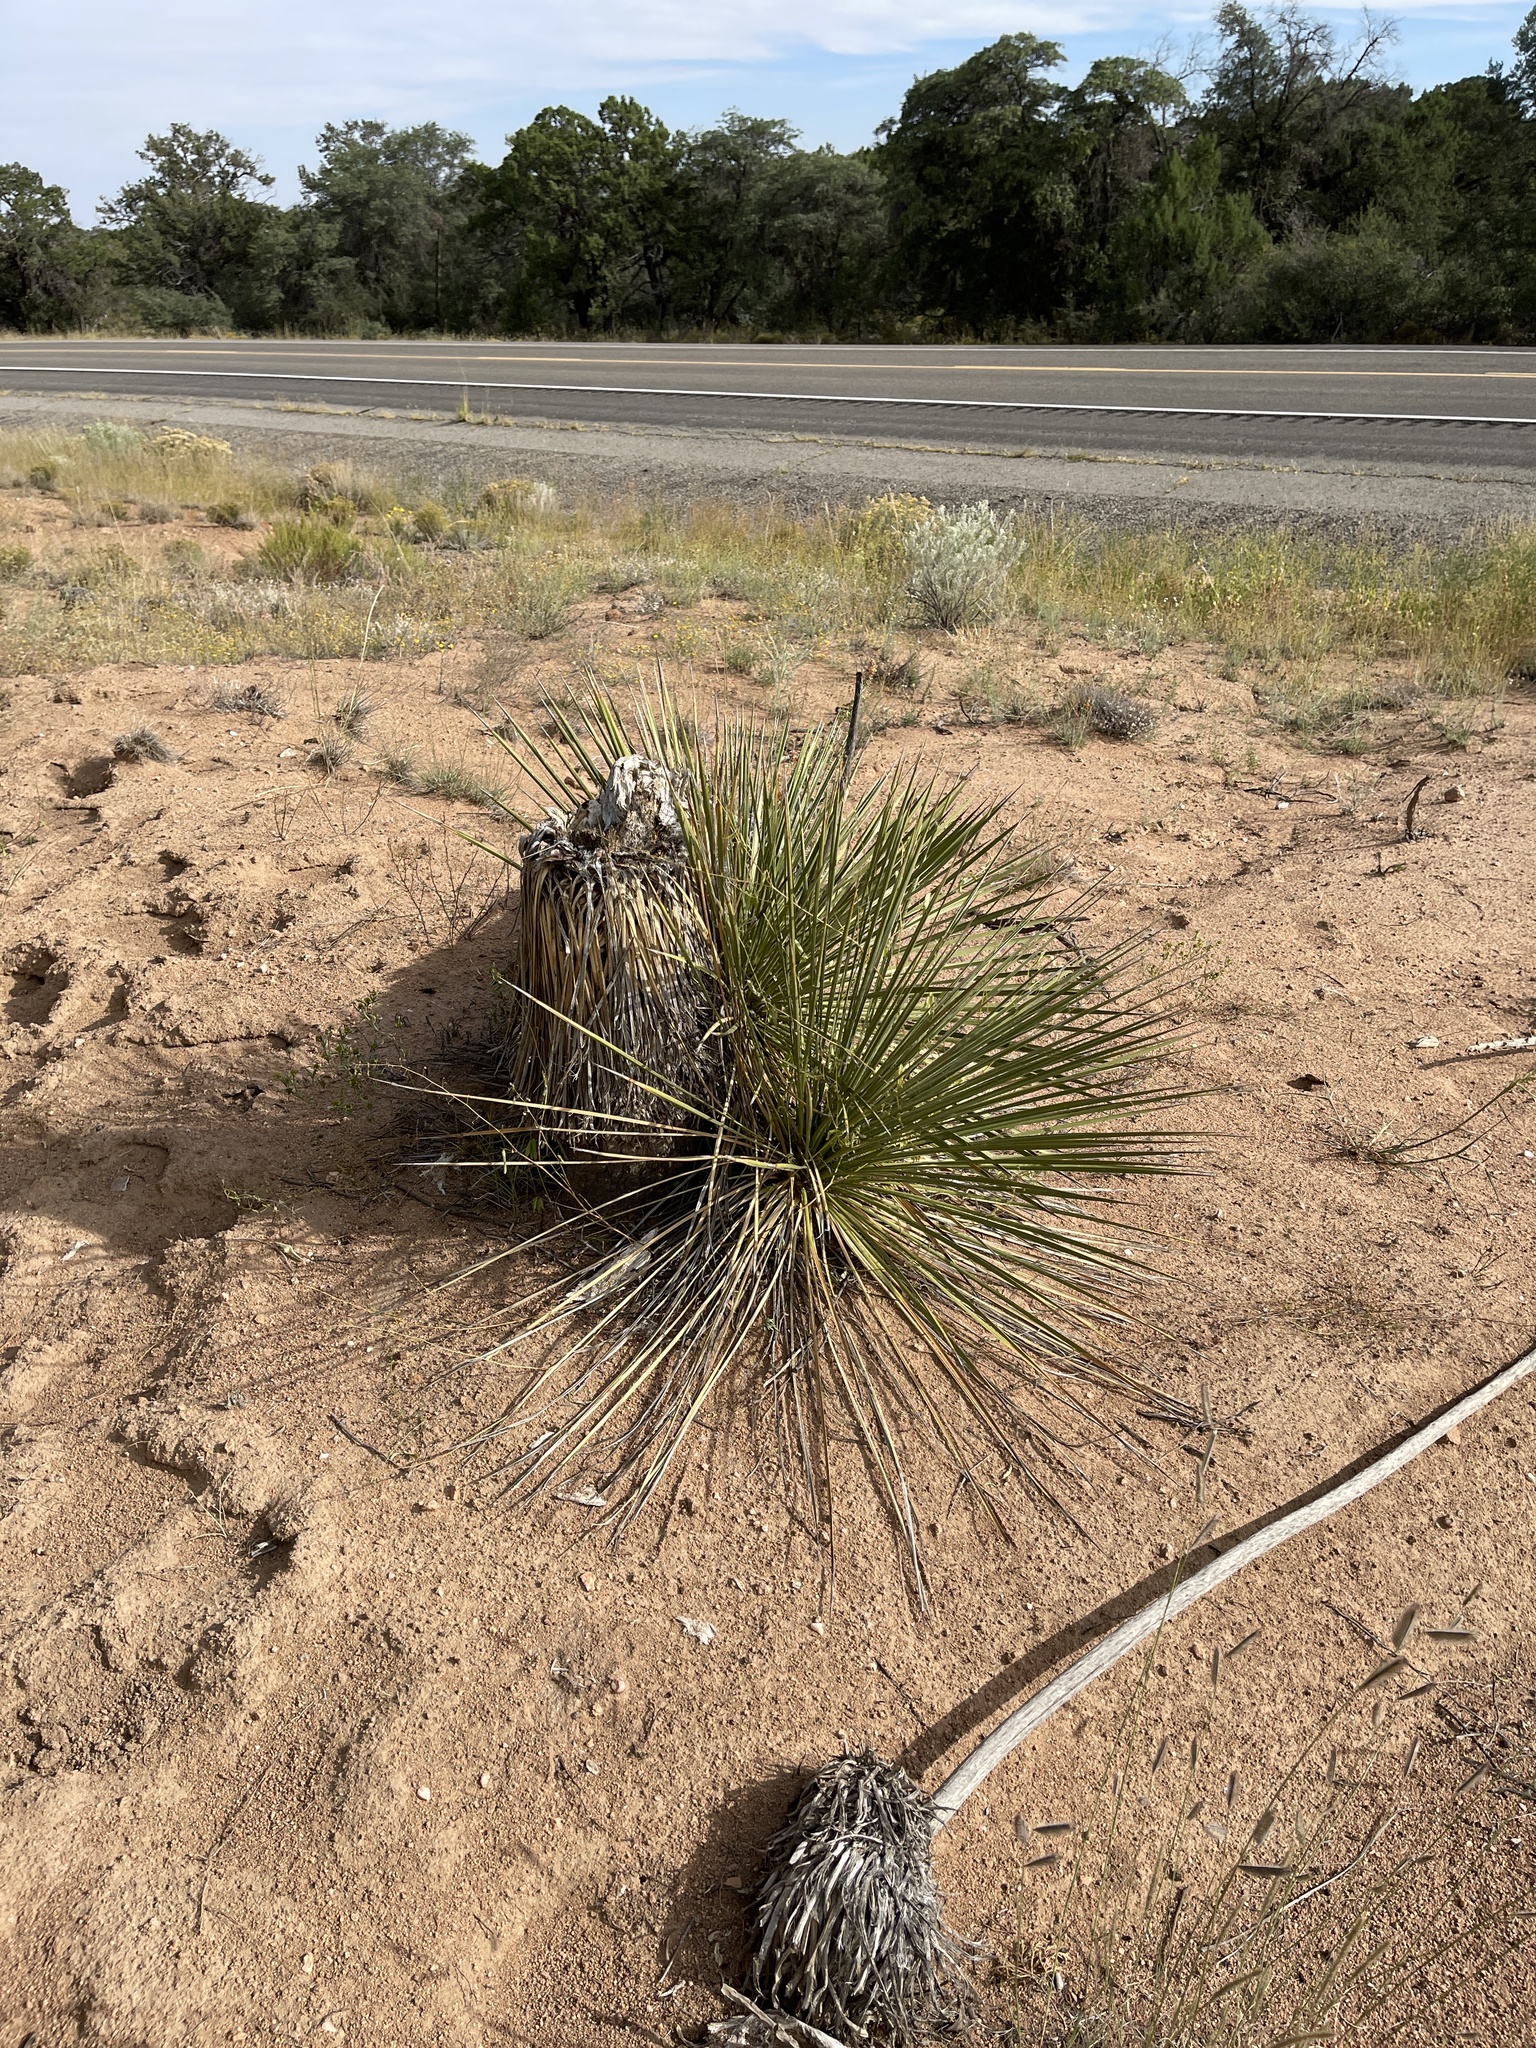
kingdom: Plantae
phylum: Tracheophyta
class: Liliopsida
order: Asparagales
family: Asparagaceae
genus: Yucca
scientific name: Yucca elata
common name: Palmella
